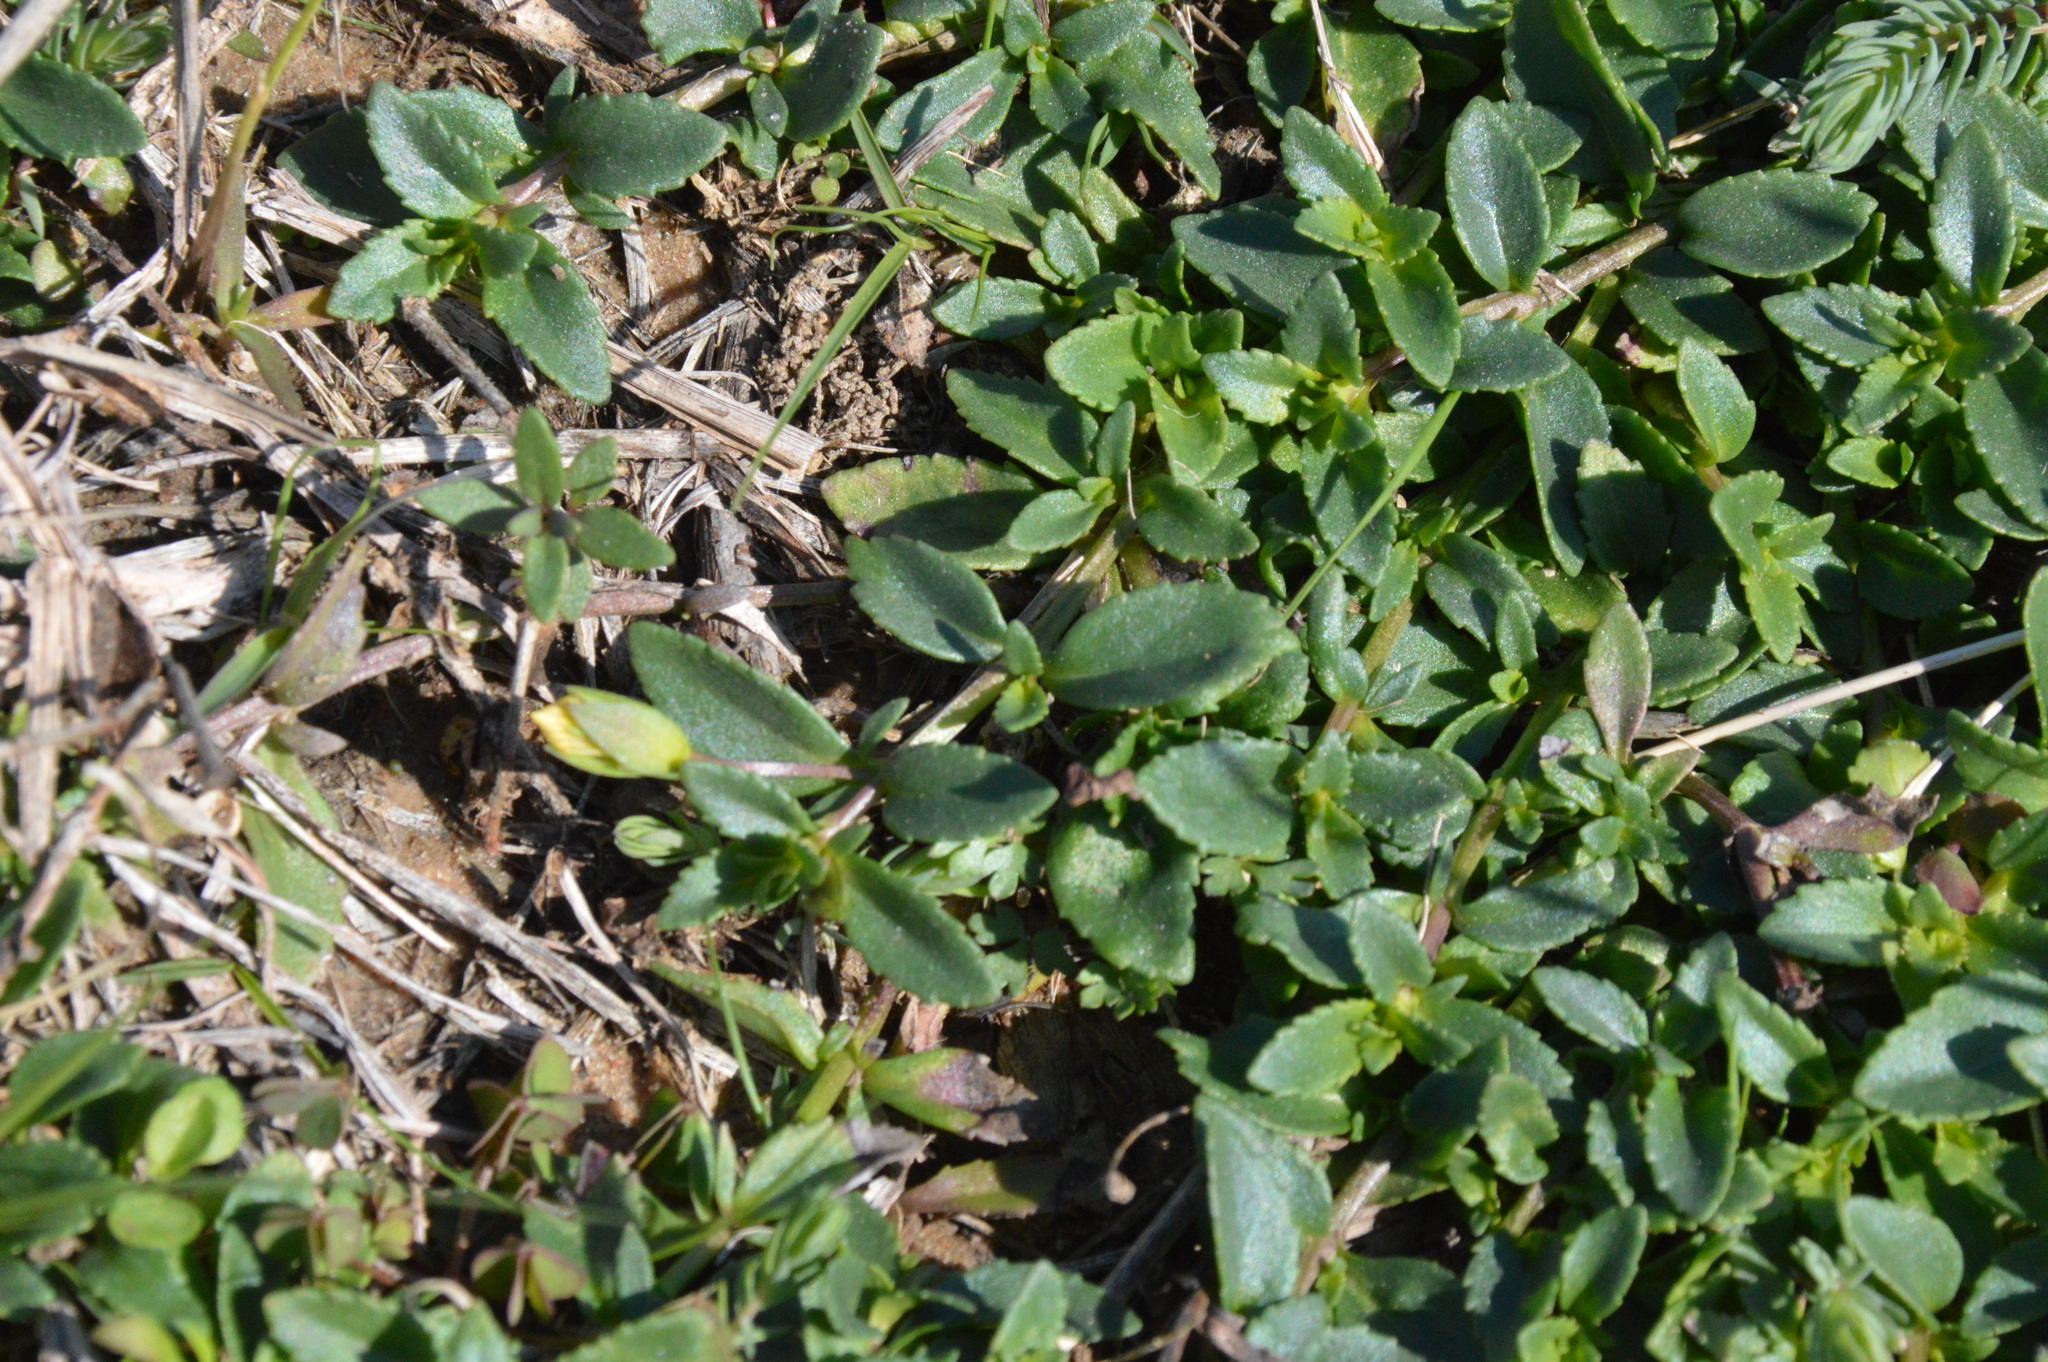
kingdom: Plantae
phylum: Tracheophyta
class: Magnoliopsida
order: Lamiales
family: Plantaginaceae
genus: Mecardonia
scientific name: Mecardonia procumbens
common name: Baby jump-up
